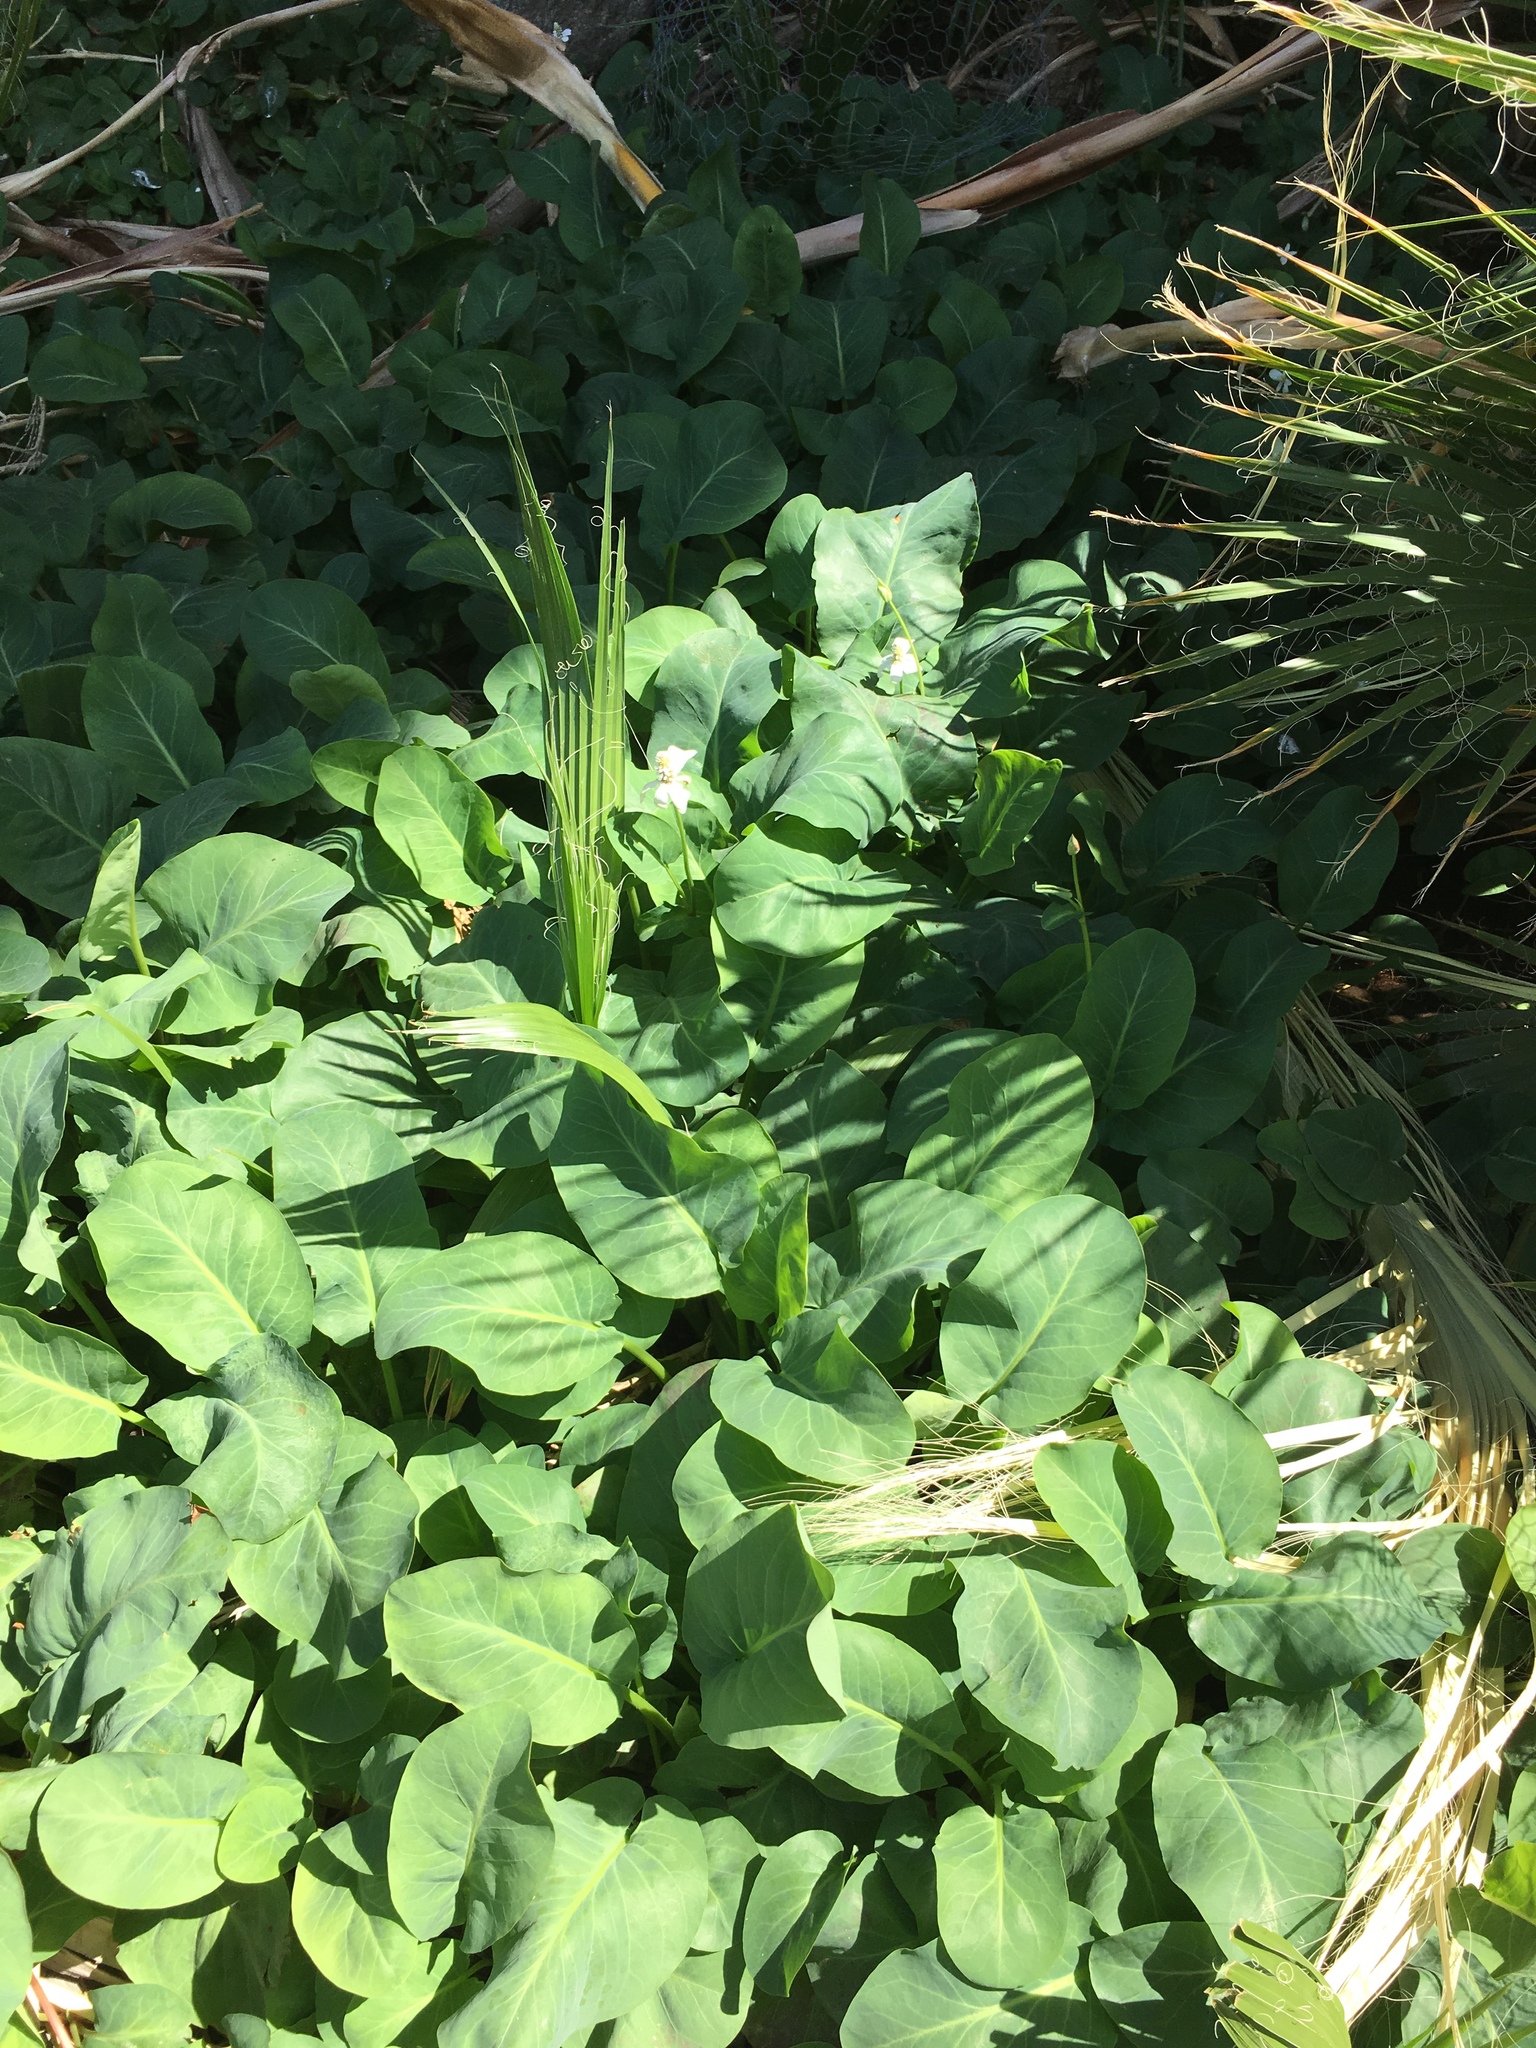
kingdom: Plantae
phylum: Tracheophyta
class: Magnoliopsida
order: Piperales
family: Saururaceae
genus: Anemopsis
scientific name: Anemopsis californica
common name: Apache-beads
